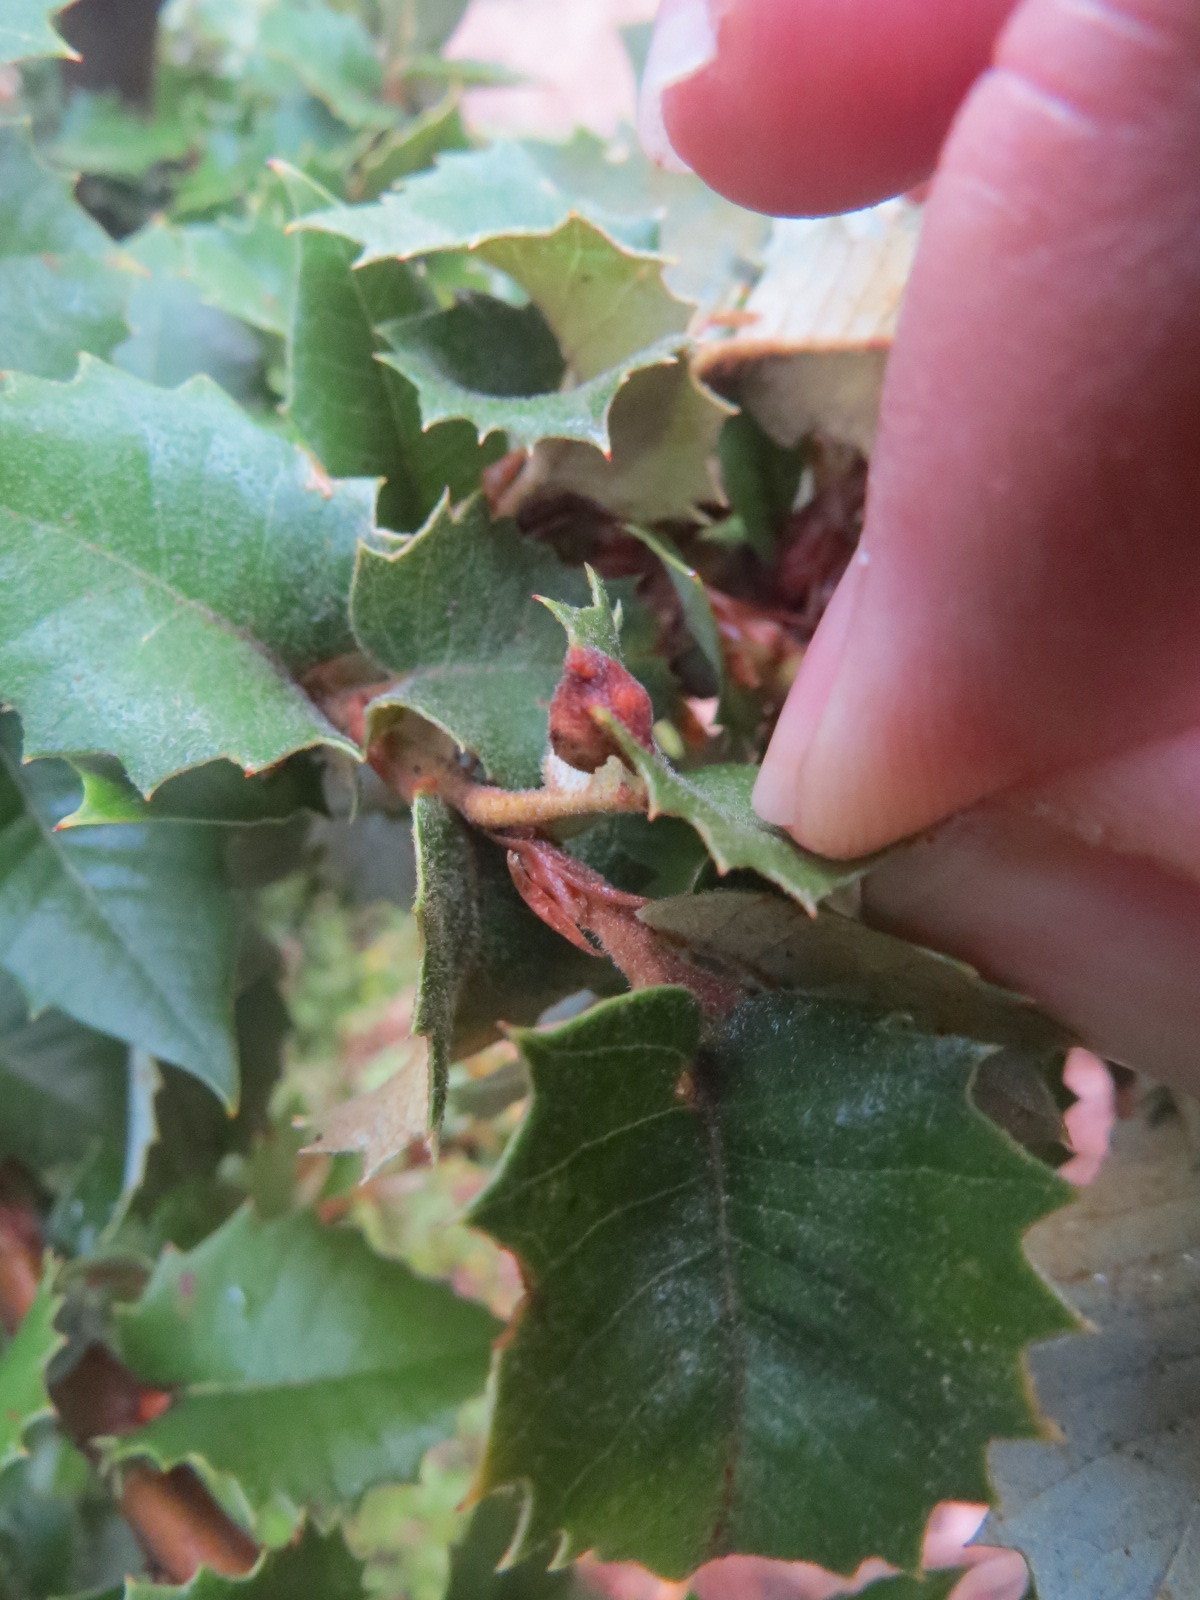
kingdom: Animalia
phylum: Arthropoda
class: Insecta
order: Hymenoptera
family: Cynipidae
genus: Heteroecus
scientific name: Heteroecus
